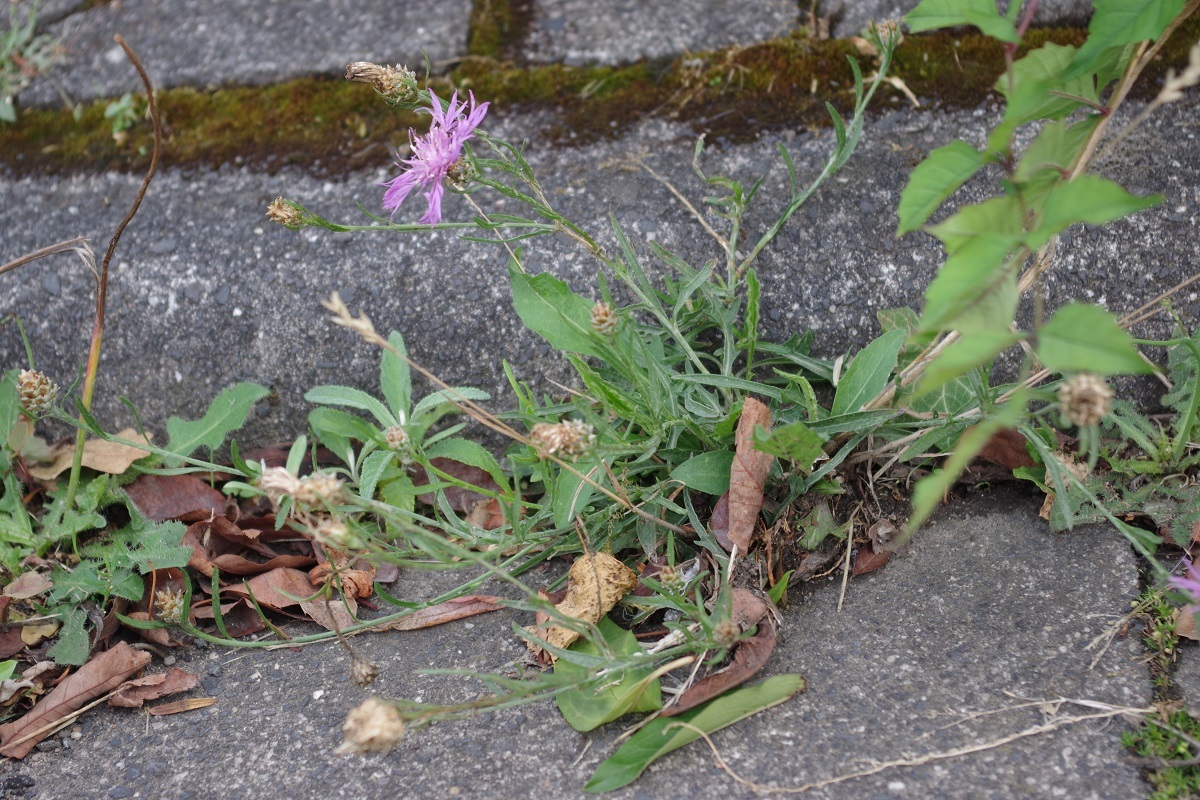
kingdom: Plantae
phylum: Tracheophyta
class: Magnoliopsida
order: Asterales
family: Asteraceae
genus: Centaurea
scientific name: Centaurea jacea
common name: Brown knapweed
